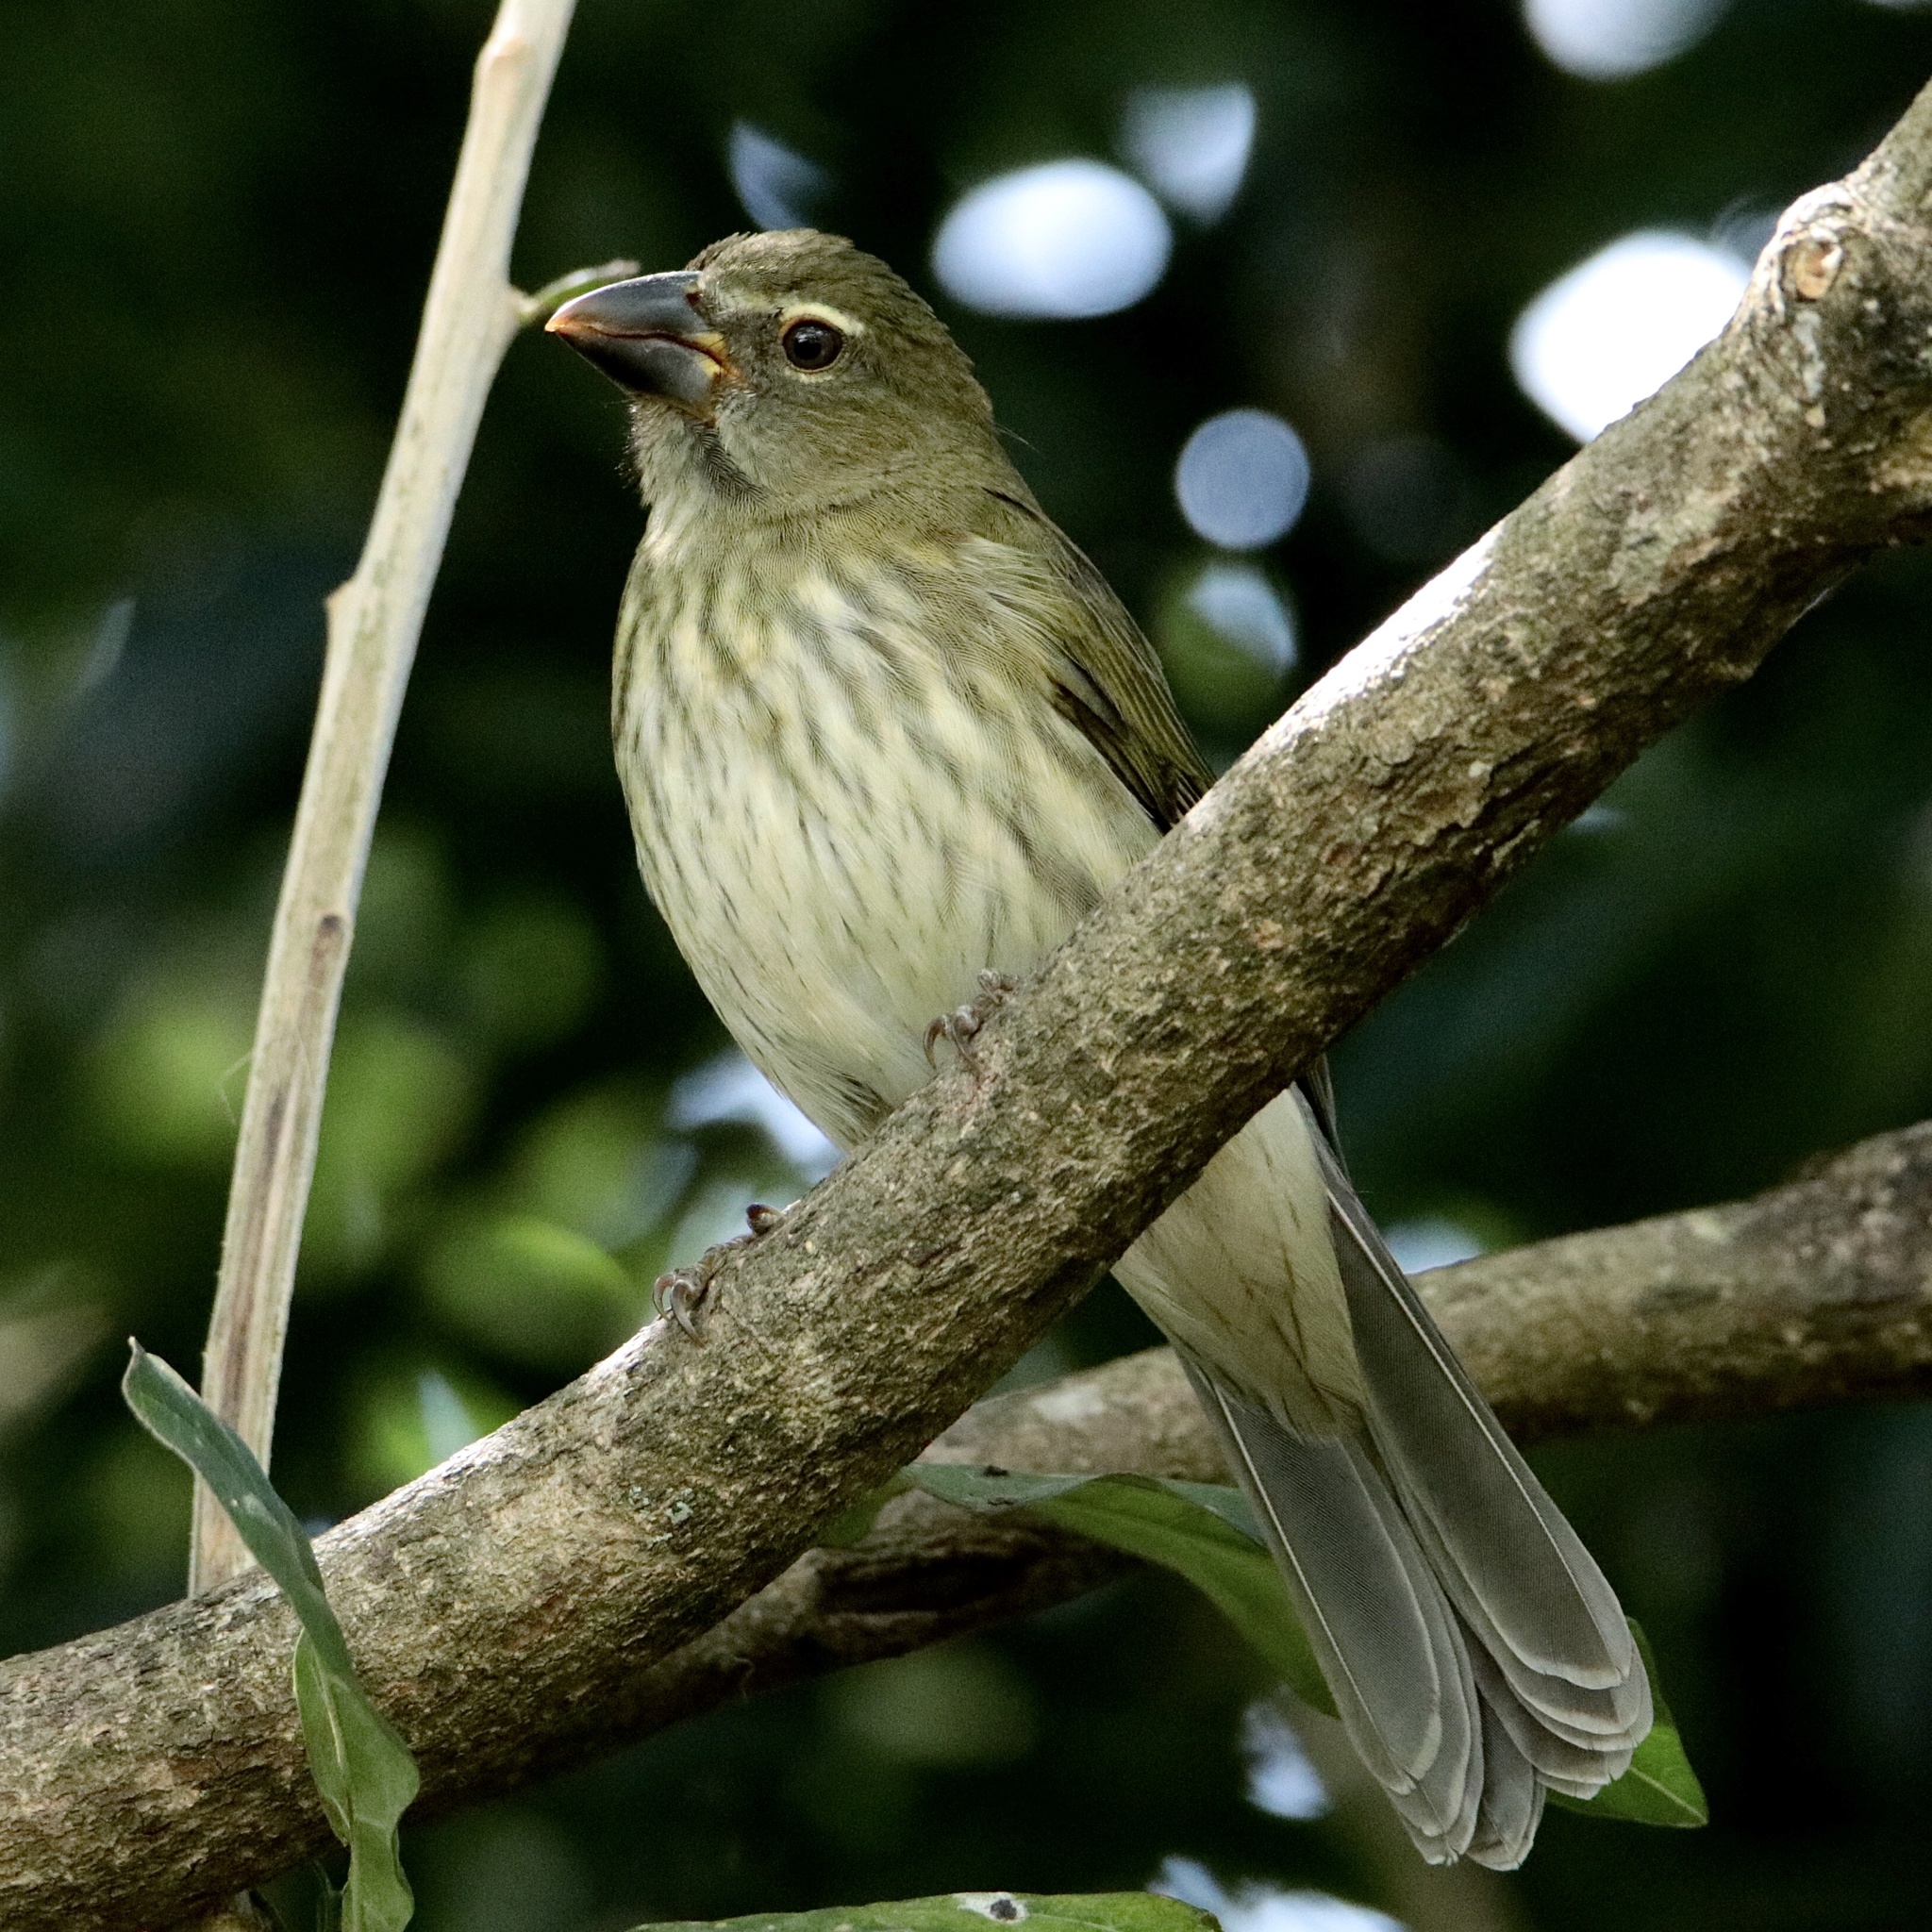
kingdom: Animalia
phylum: Chordata
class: Aves
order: Passeriformes
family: Thraupidae
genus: Saltator
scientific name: Saltator striatipectus
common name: Streaked saltator
